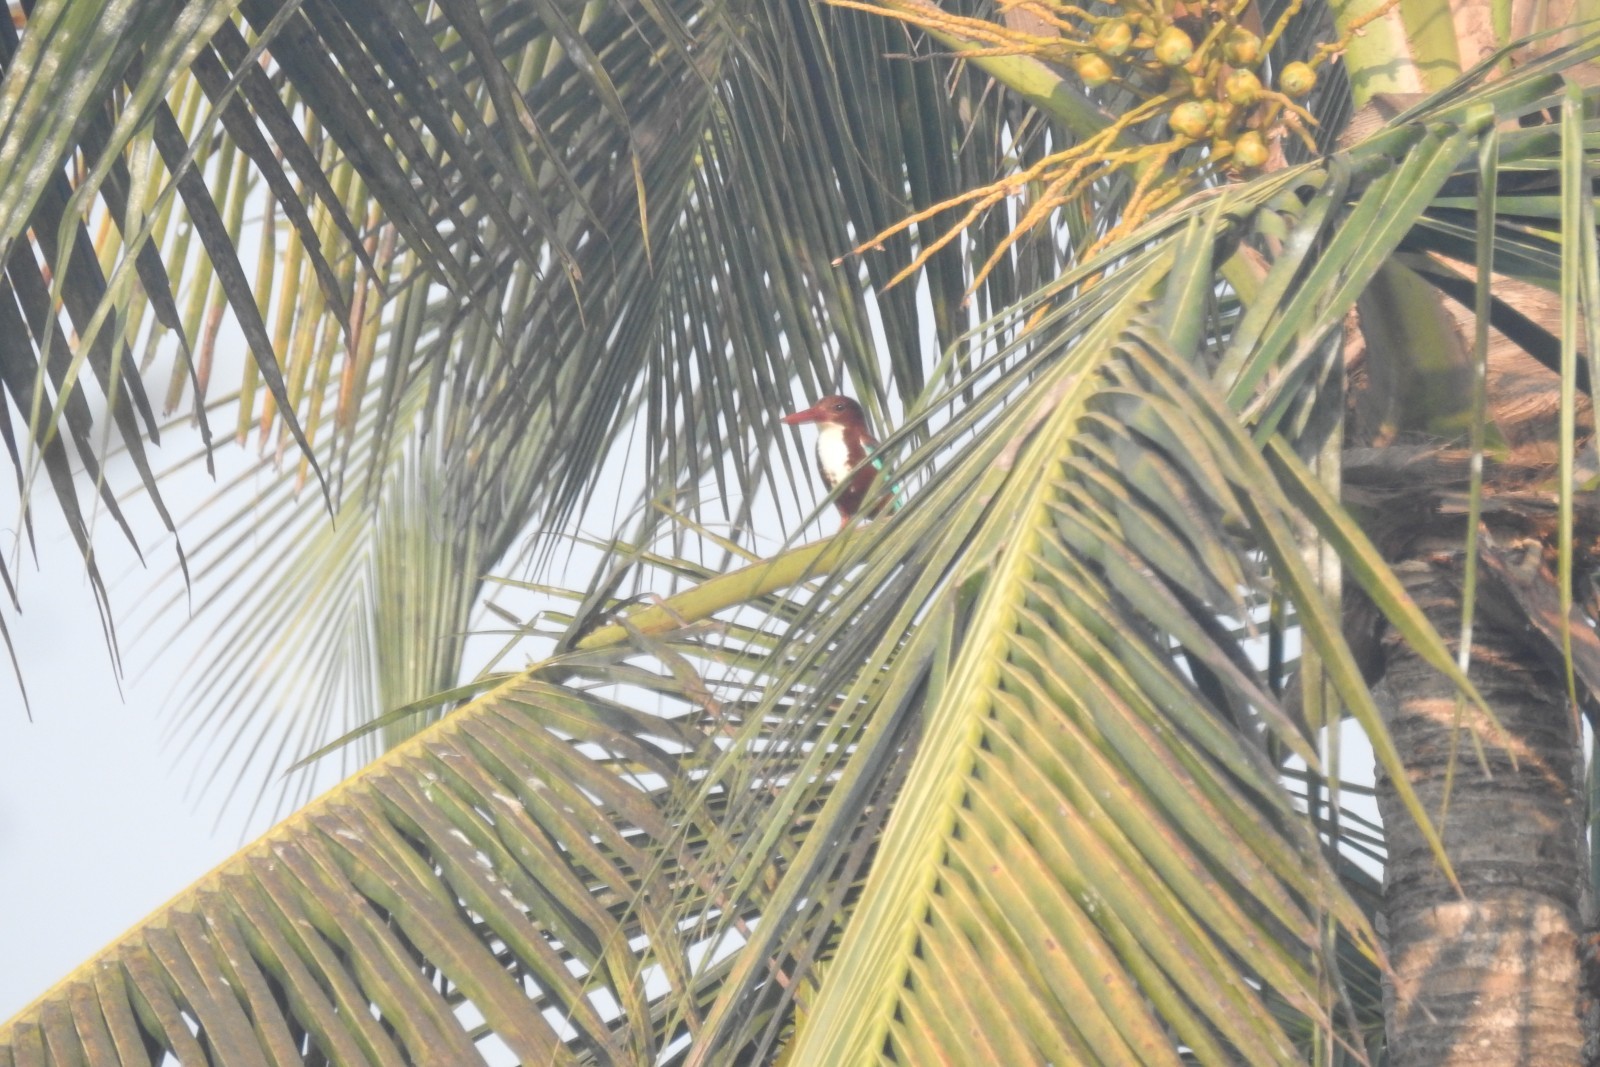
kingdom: Animalia
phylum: Chordata
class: Aves
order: Coraciiformes
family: Alcedinidae
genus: Halcyon
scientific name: Halcyon smyrnensis
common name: White-throated kingfisher
